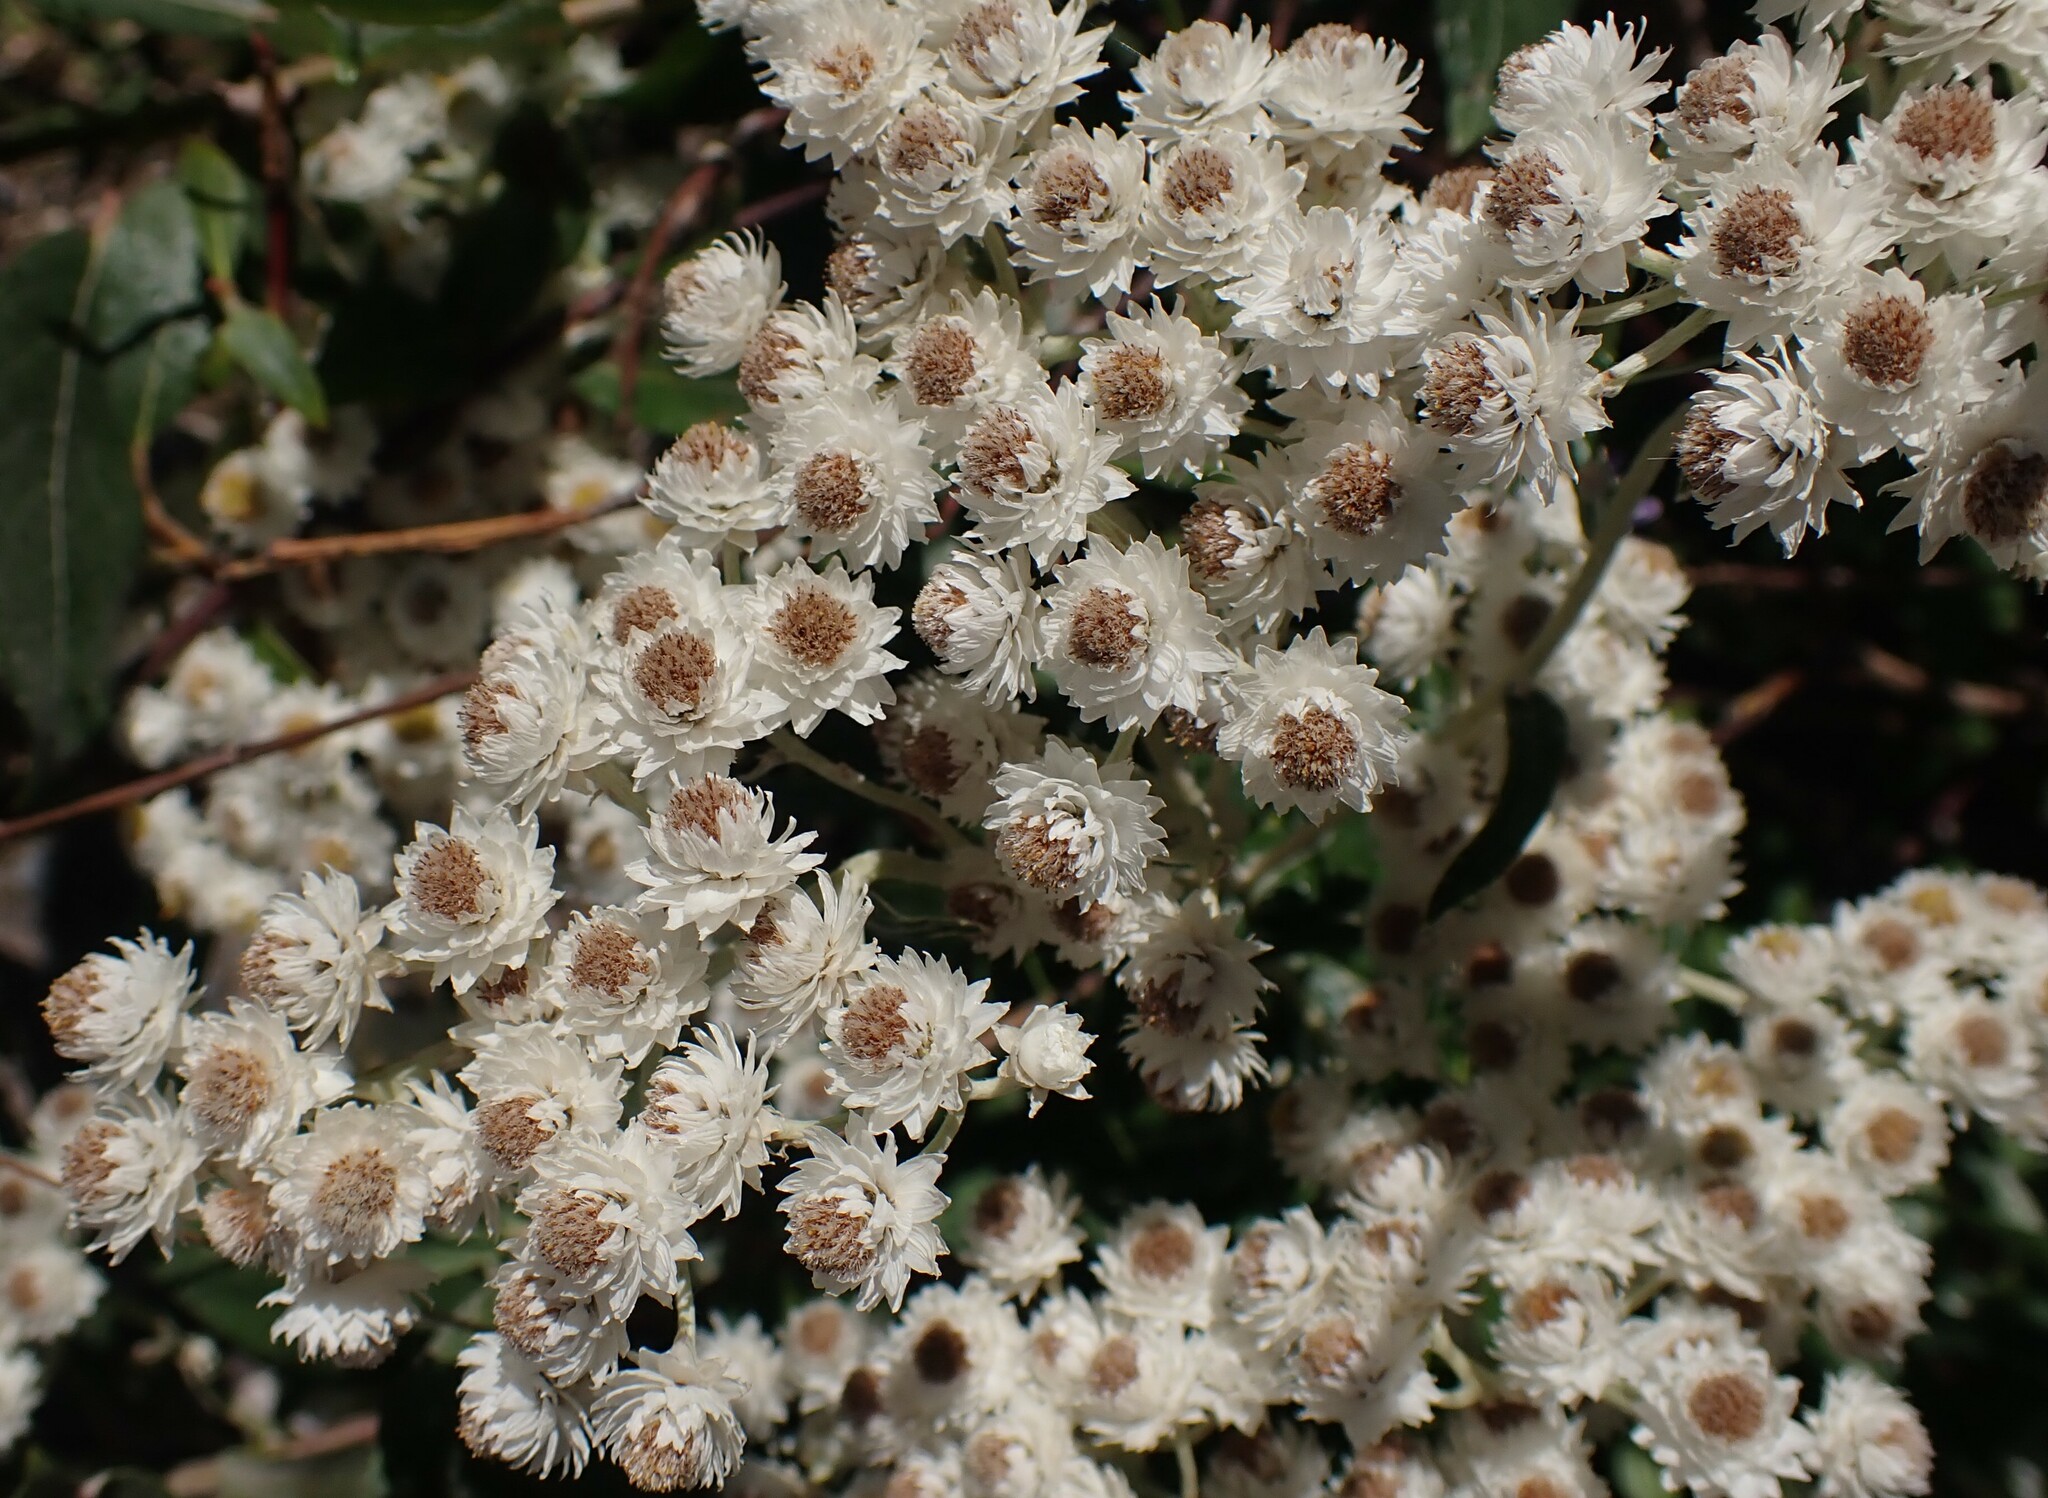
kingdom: Plantae
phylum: Tracheophyta
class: Magnoliopsida
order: Asterales
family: Asteraceae
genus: Anaphalis
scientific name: Anaphalis margaritacea
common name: Pearly everlasting
